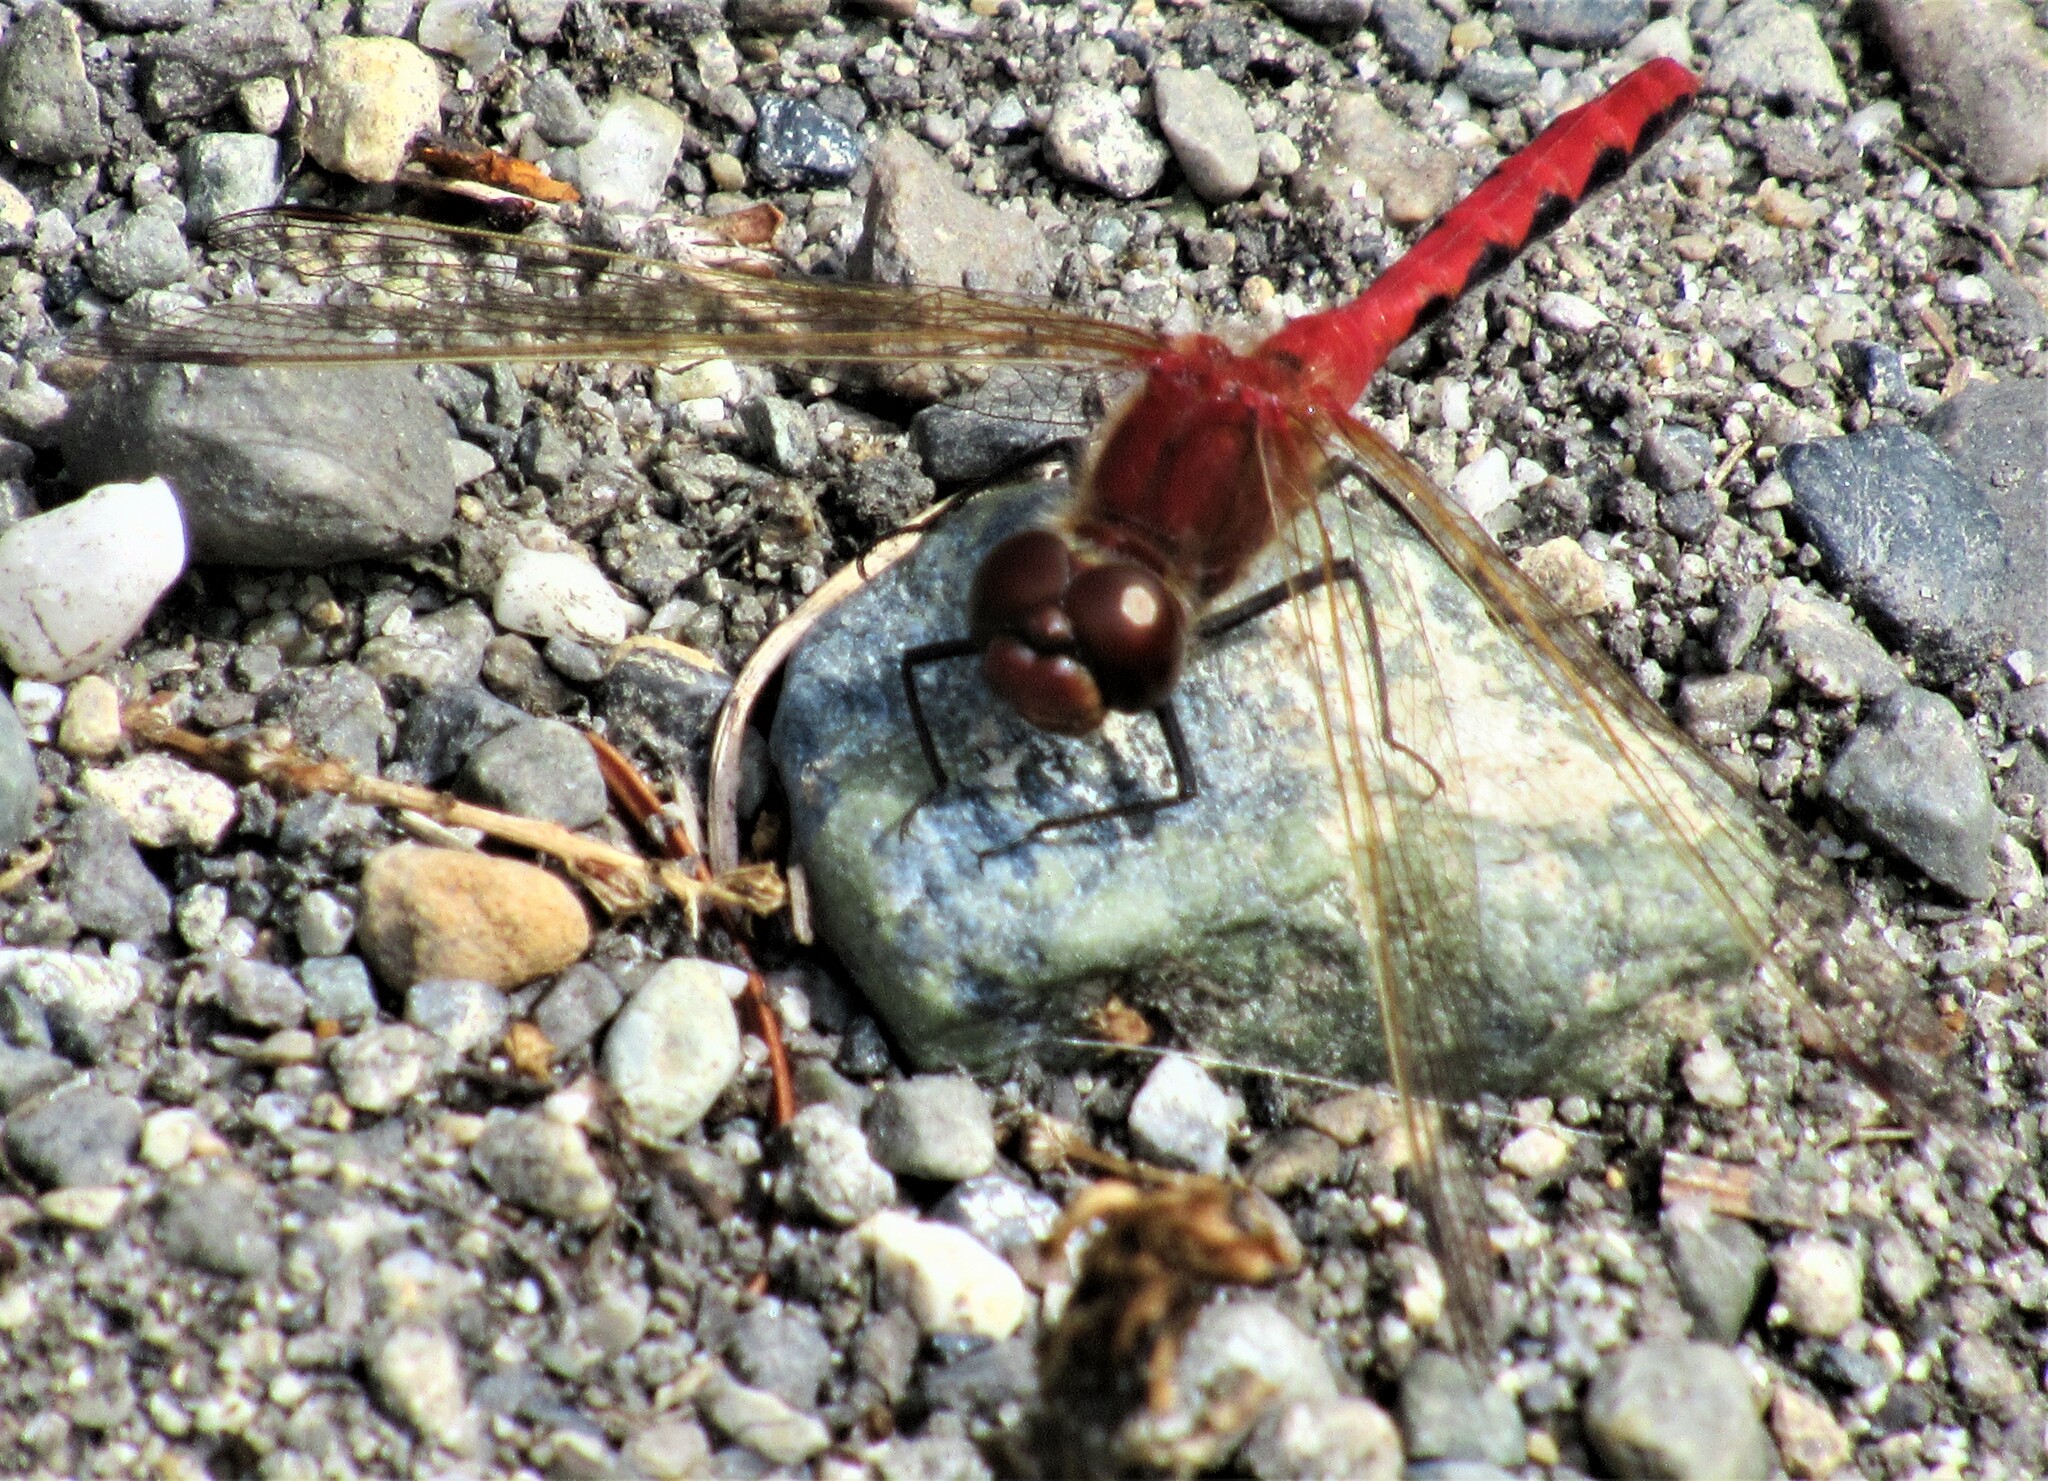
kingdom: Animalia
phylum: Arthropoda
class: Insecta
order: Odonata
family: Libellulidae
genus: Sympetrum
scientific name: Sympetrum internum
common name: Cherry-faced meadowhawk
